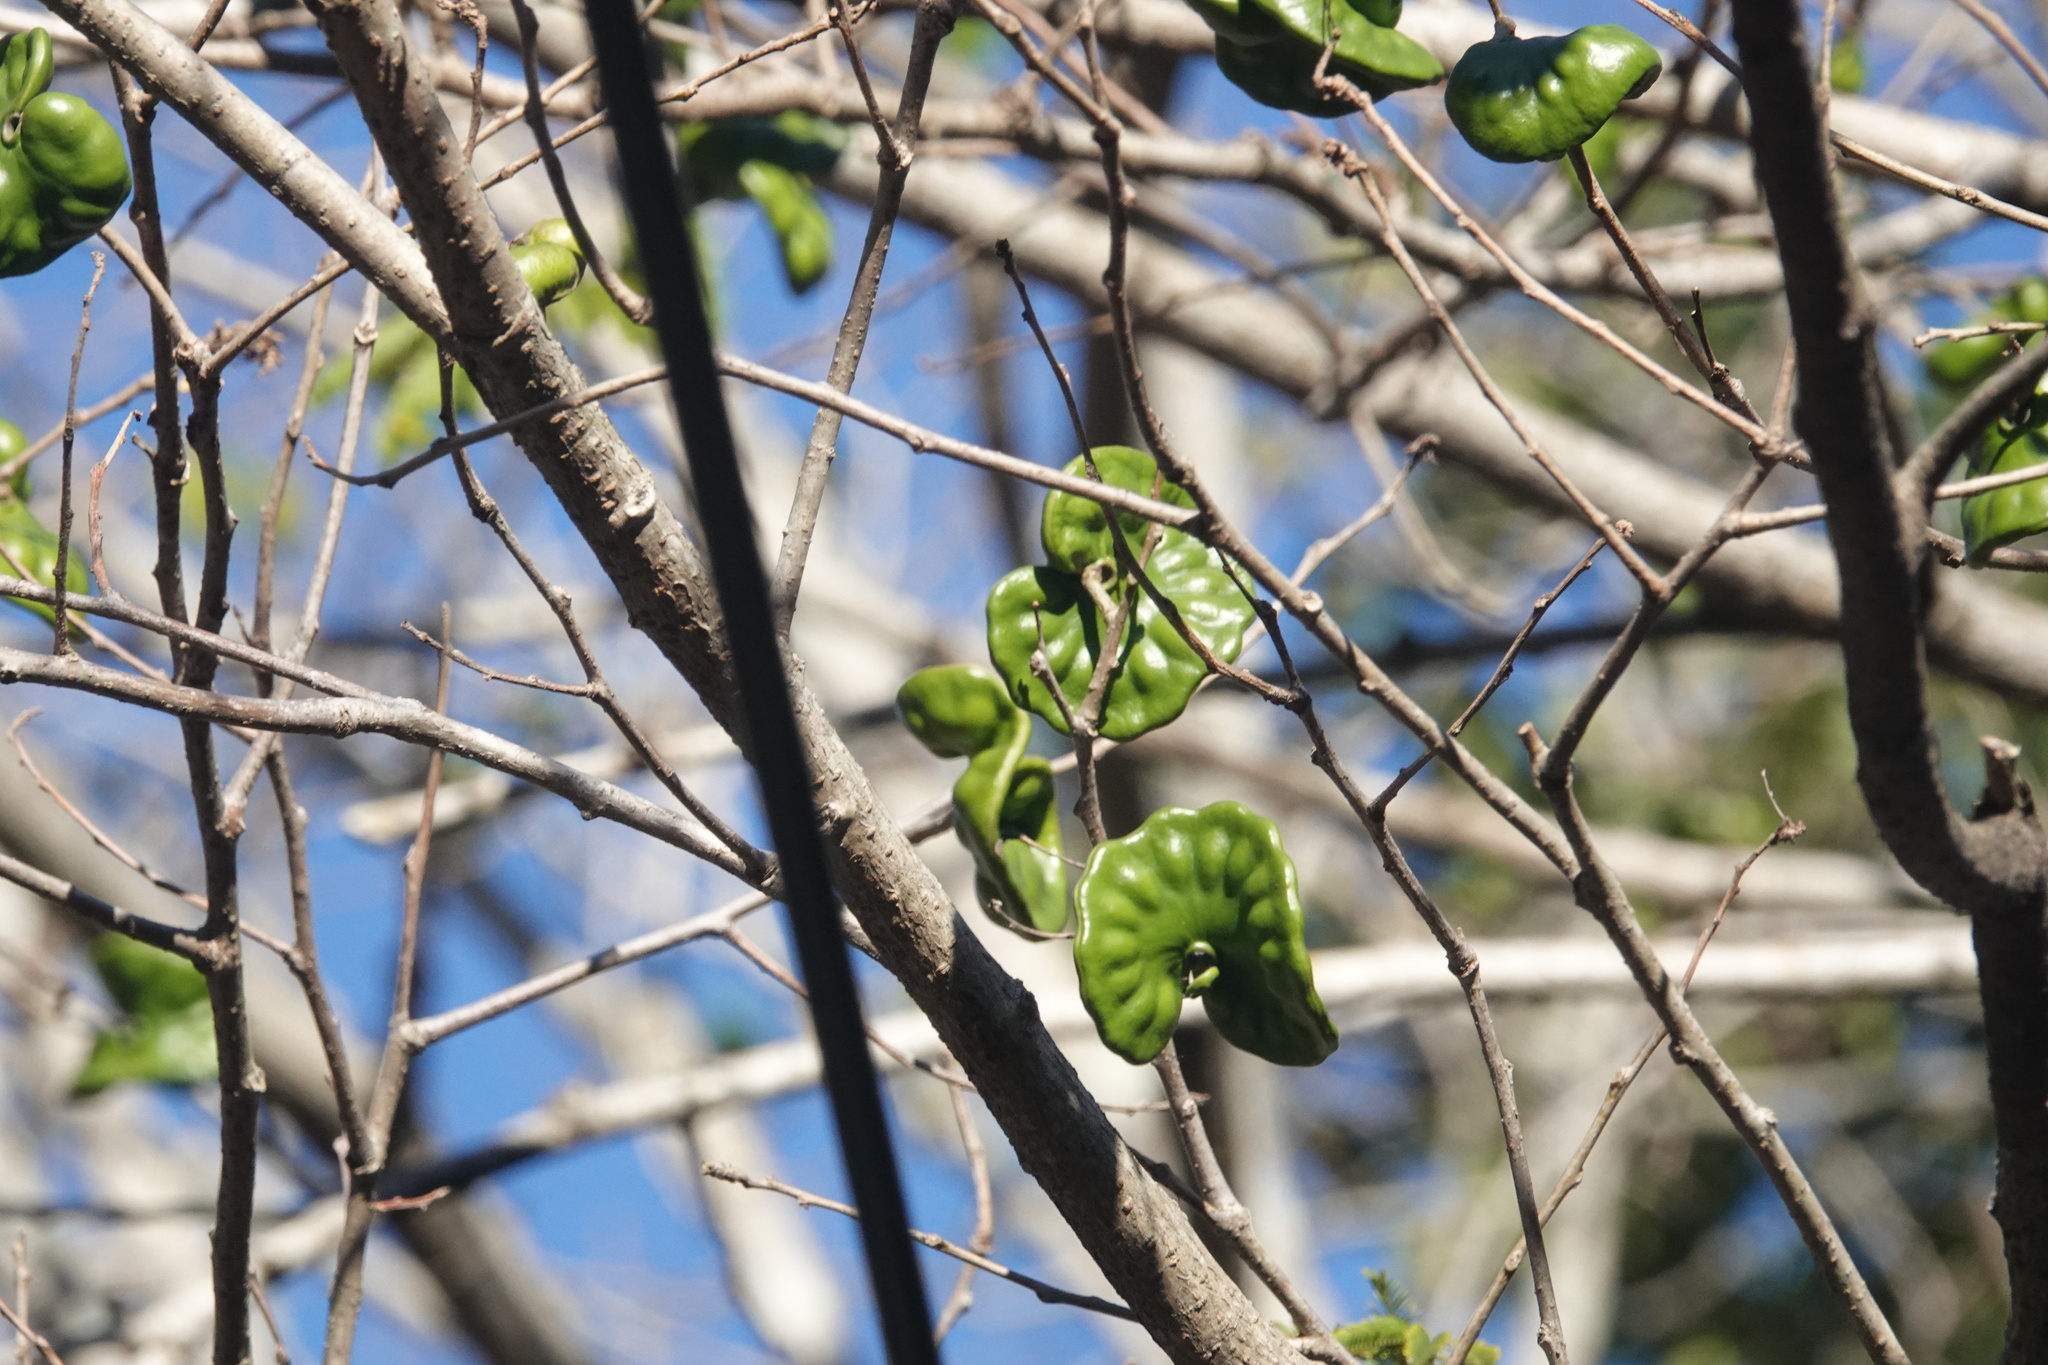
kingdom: Plantae
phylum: Tracheophyta
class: Magnoliopsida
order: Fabales
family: Fabaceae
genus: Enterolobium
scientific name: Enterolobium cyclocarpum
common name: Ear tree
